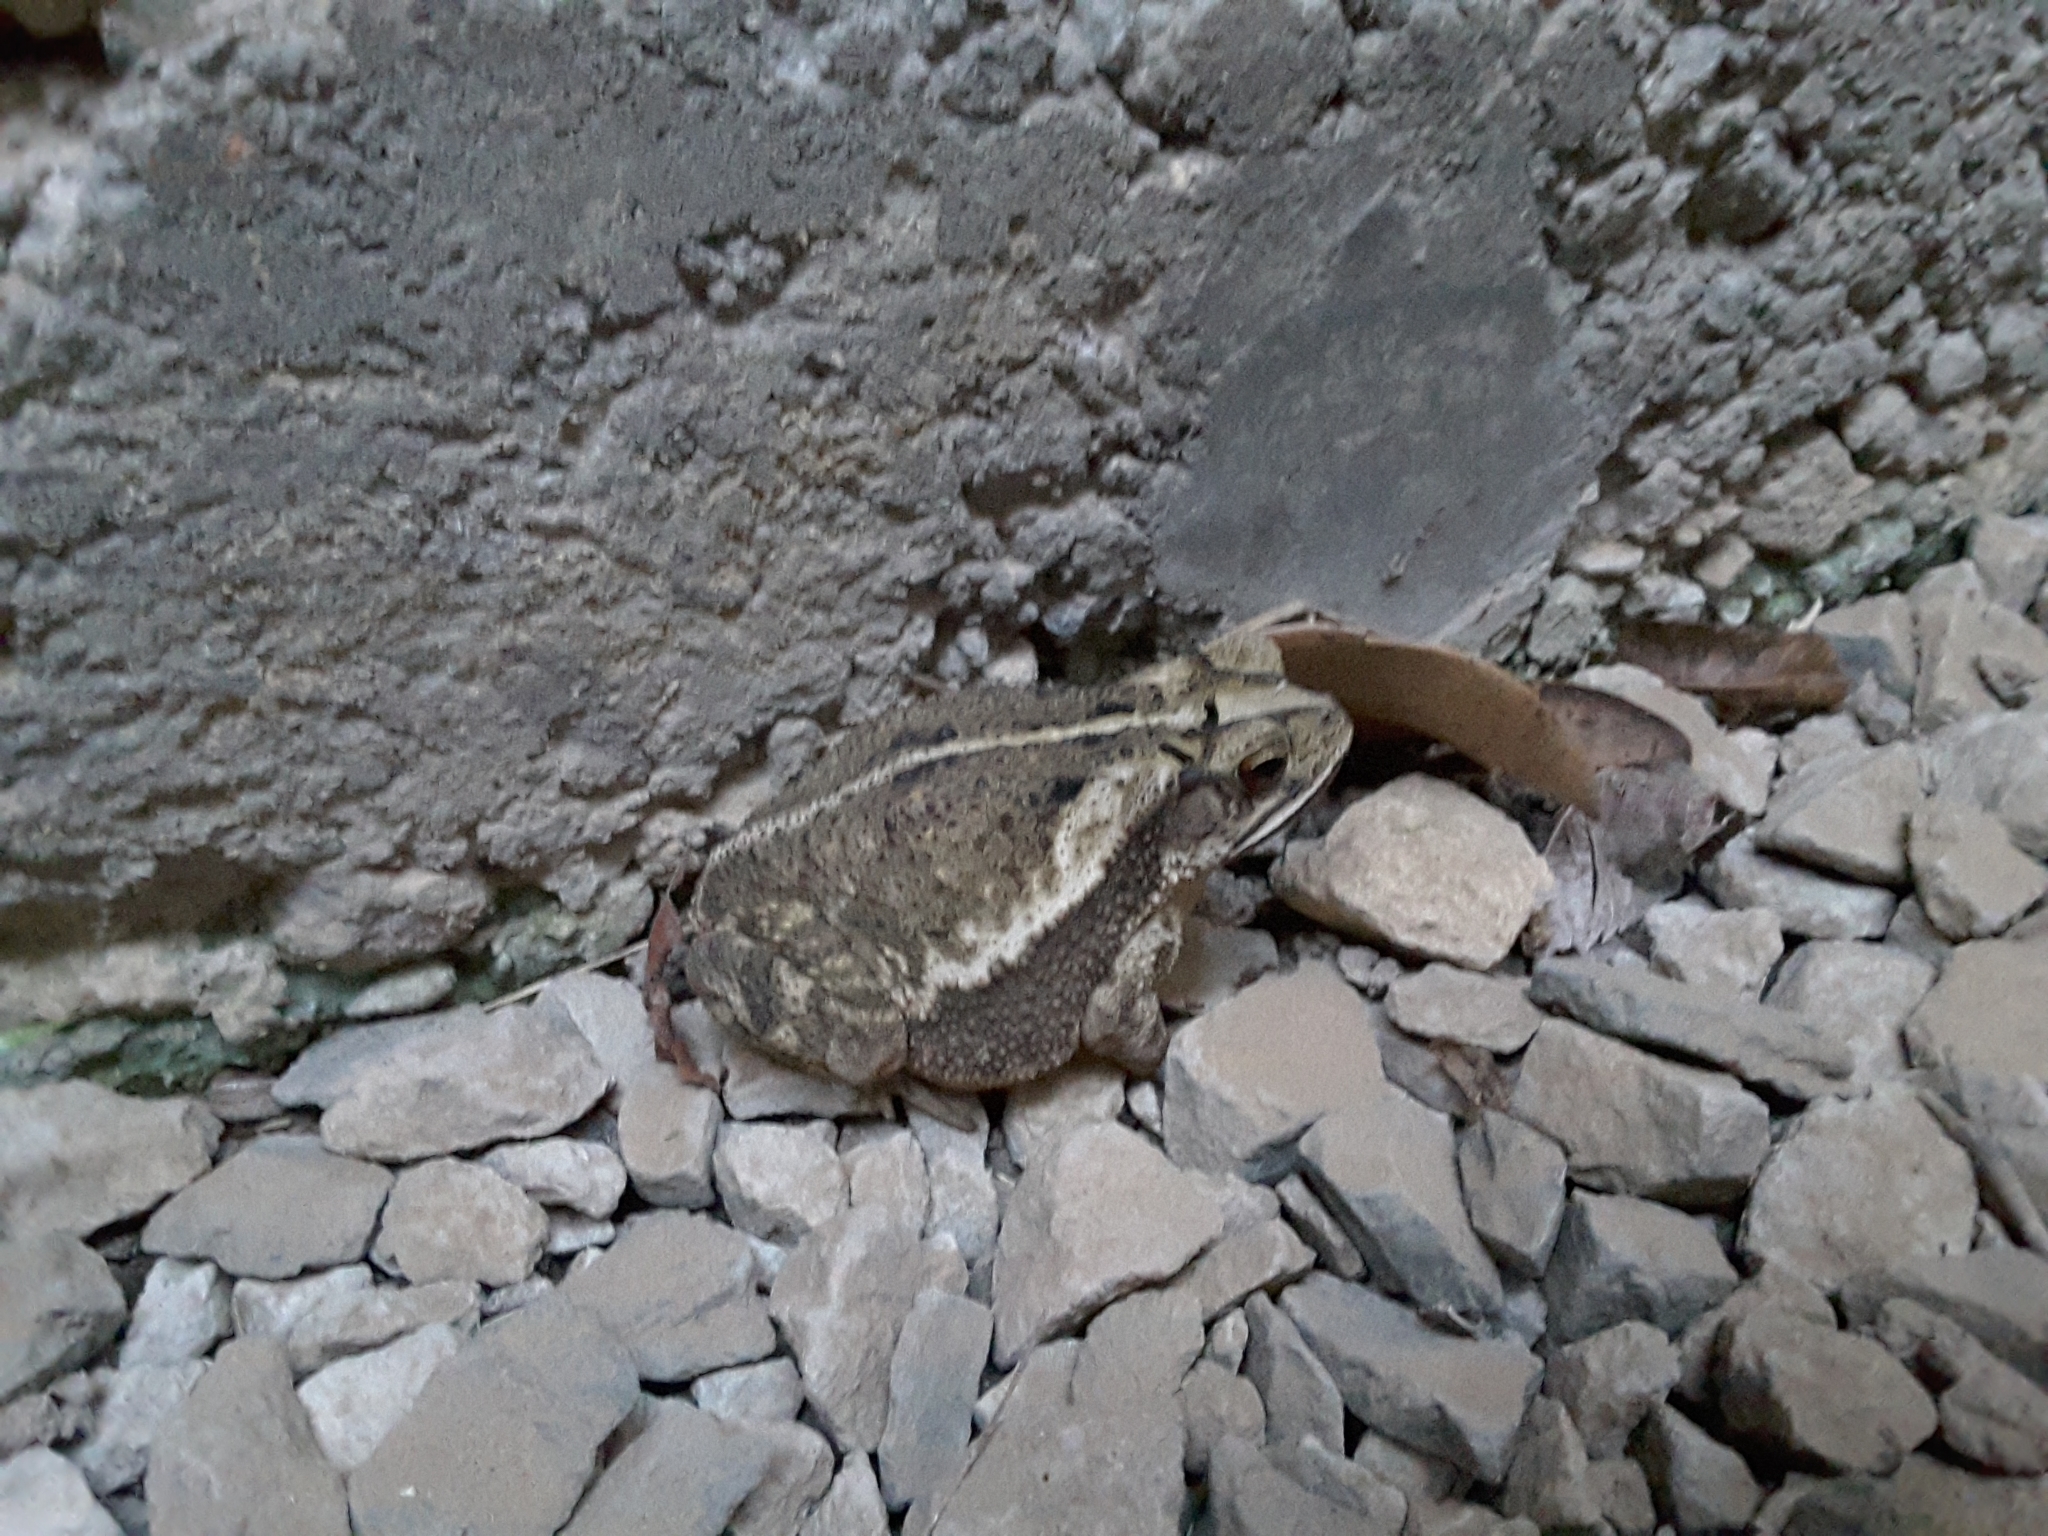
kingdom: Animalia
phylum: Chordata
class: Amphibia
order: Anura
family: Bufonidae
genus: Incilius
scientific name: Incilius nebulifer
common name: Gulf coast toad
